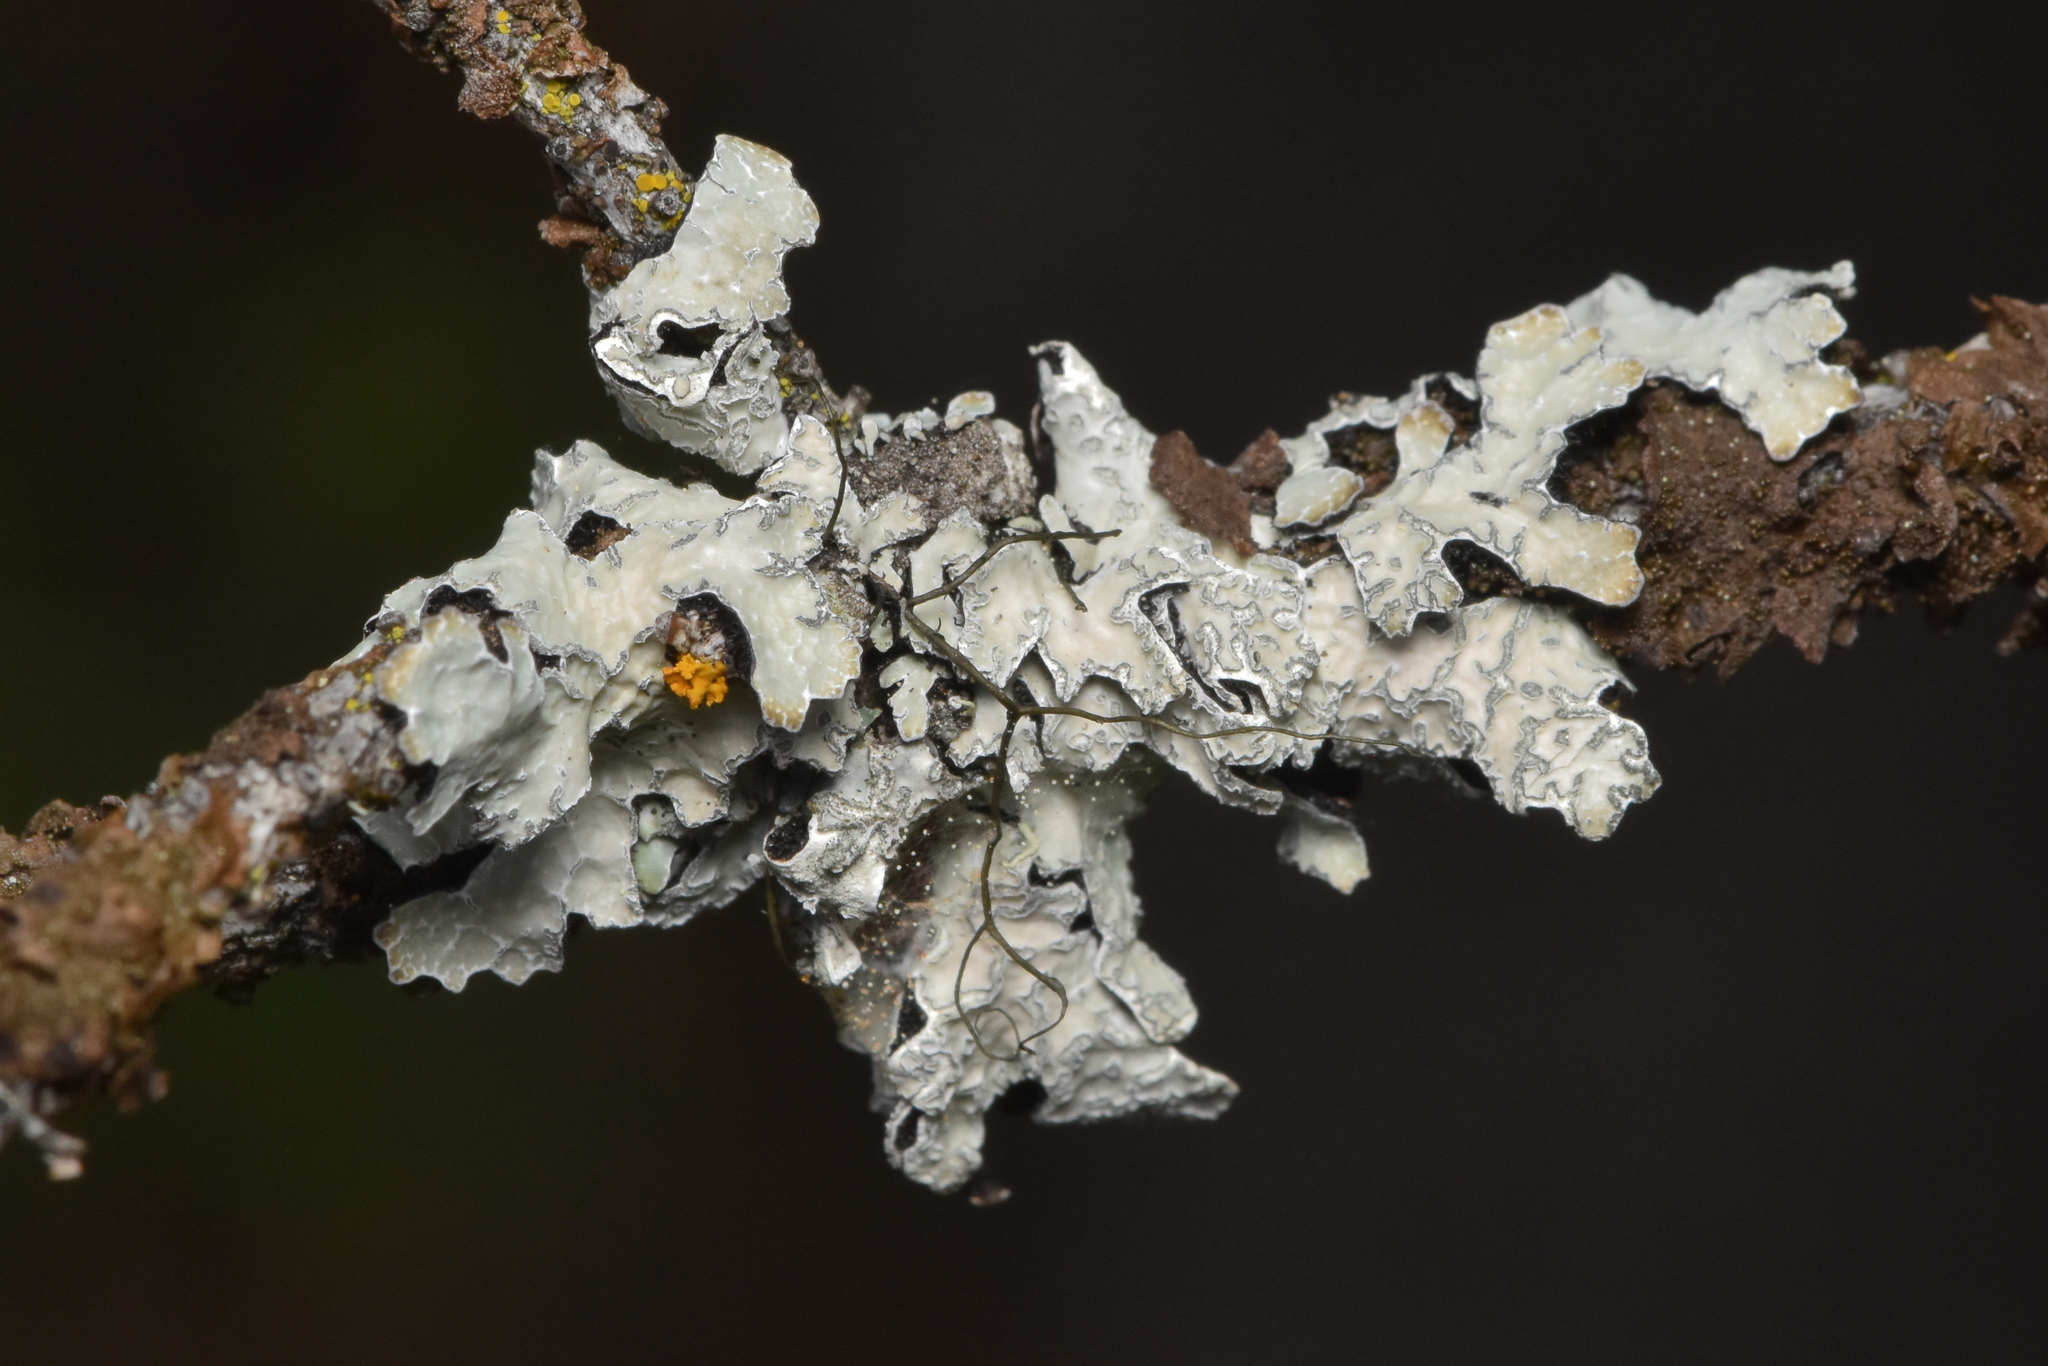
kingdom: Fungi
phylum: Ascomycota
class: Lecanoromycetes
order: Lecanorales
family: Parmeliaceae
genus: Parmelia
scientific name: Parmelia sulcata
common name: Netted shield lichen
